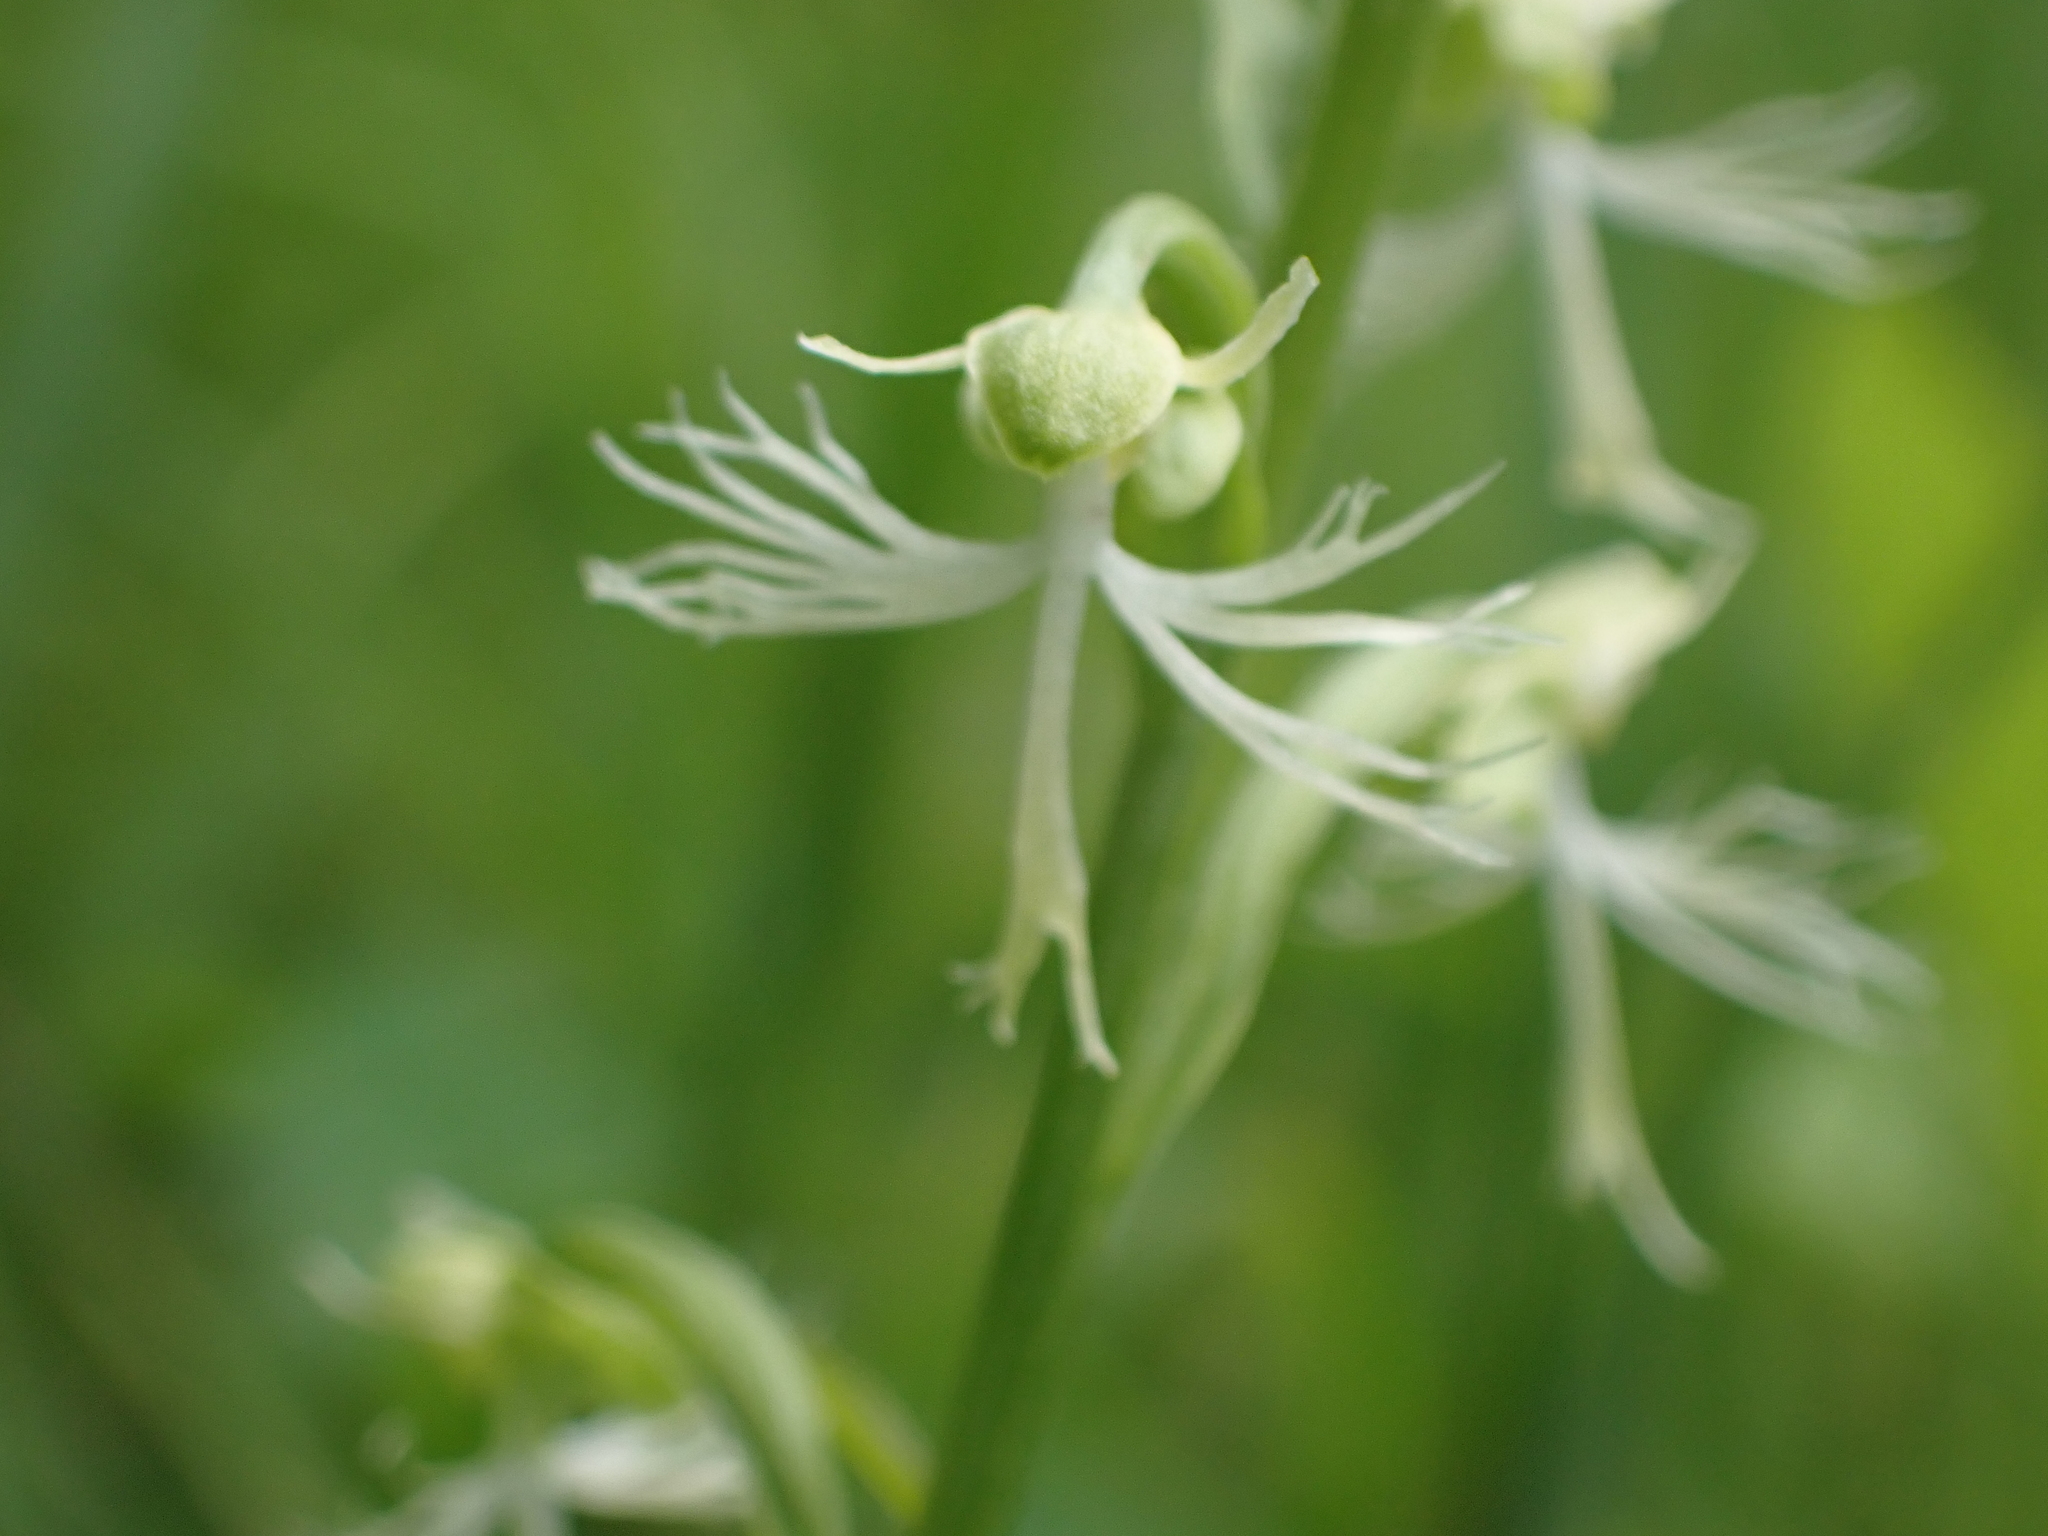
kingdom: Plantae
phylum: Tracheophyta
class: Liliopsida
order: Asparagales
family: Orchidaceae
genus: Platanthera
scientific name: Platanthera lacera
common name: Green fringed orchid
